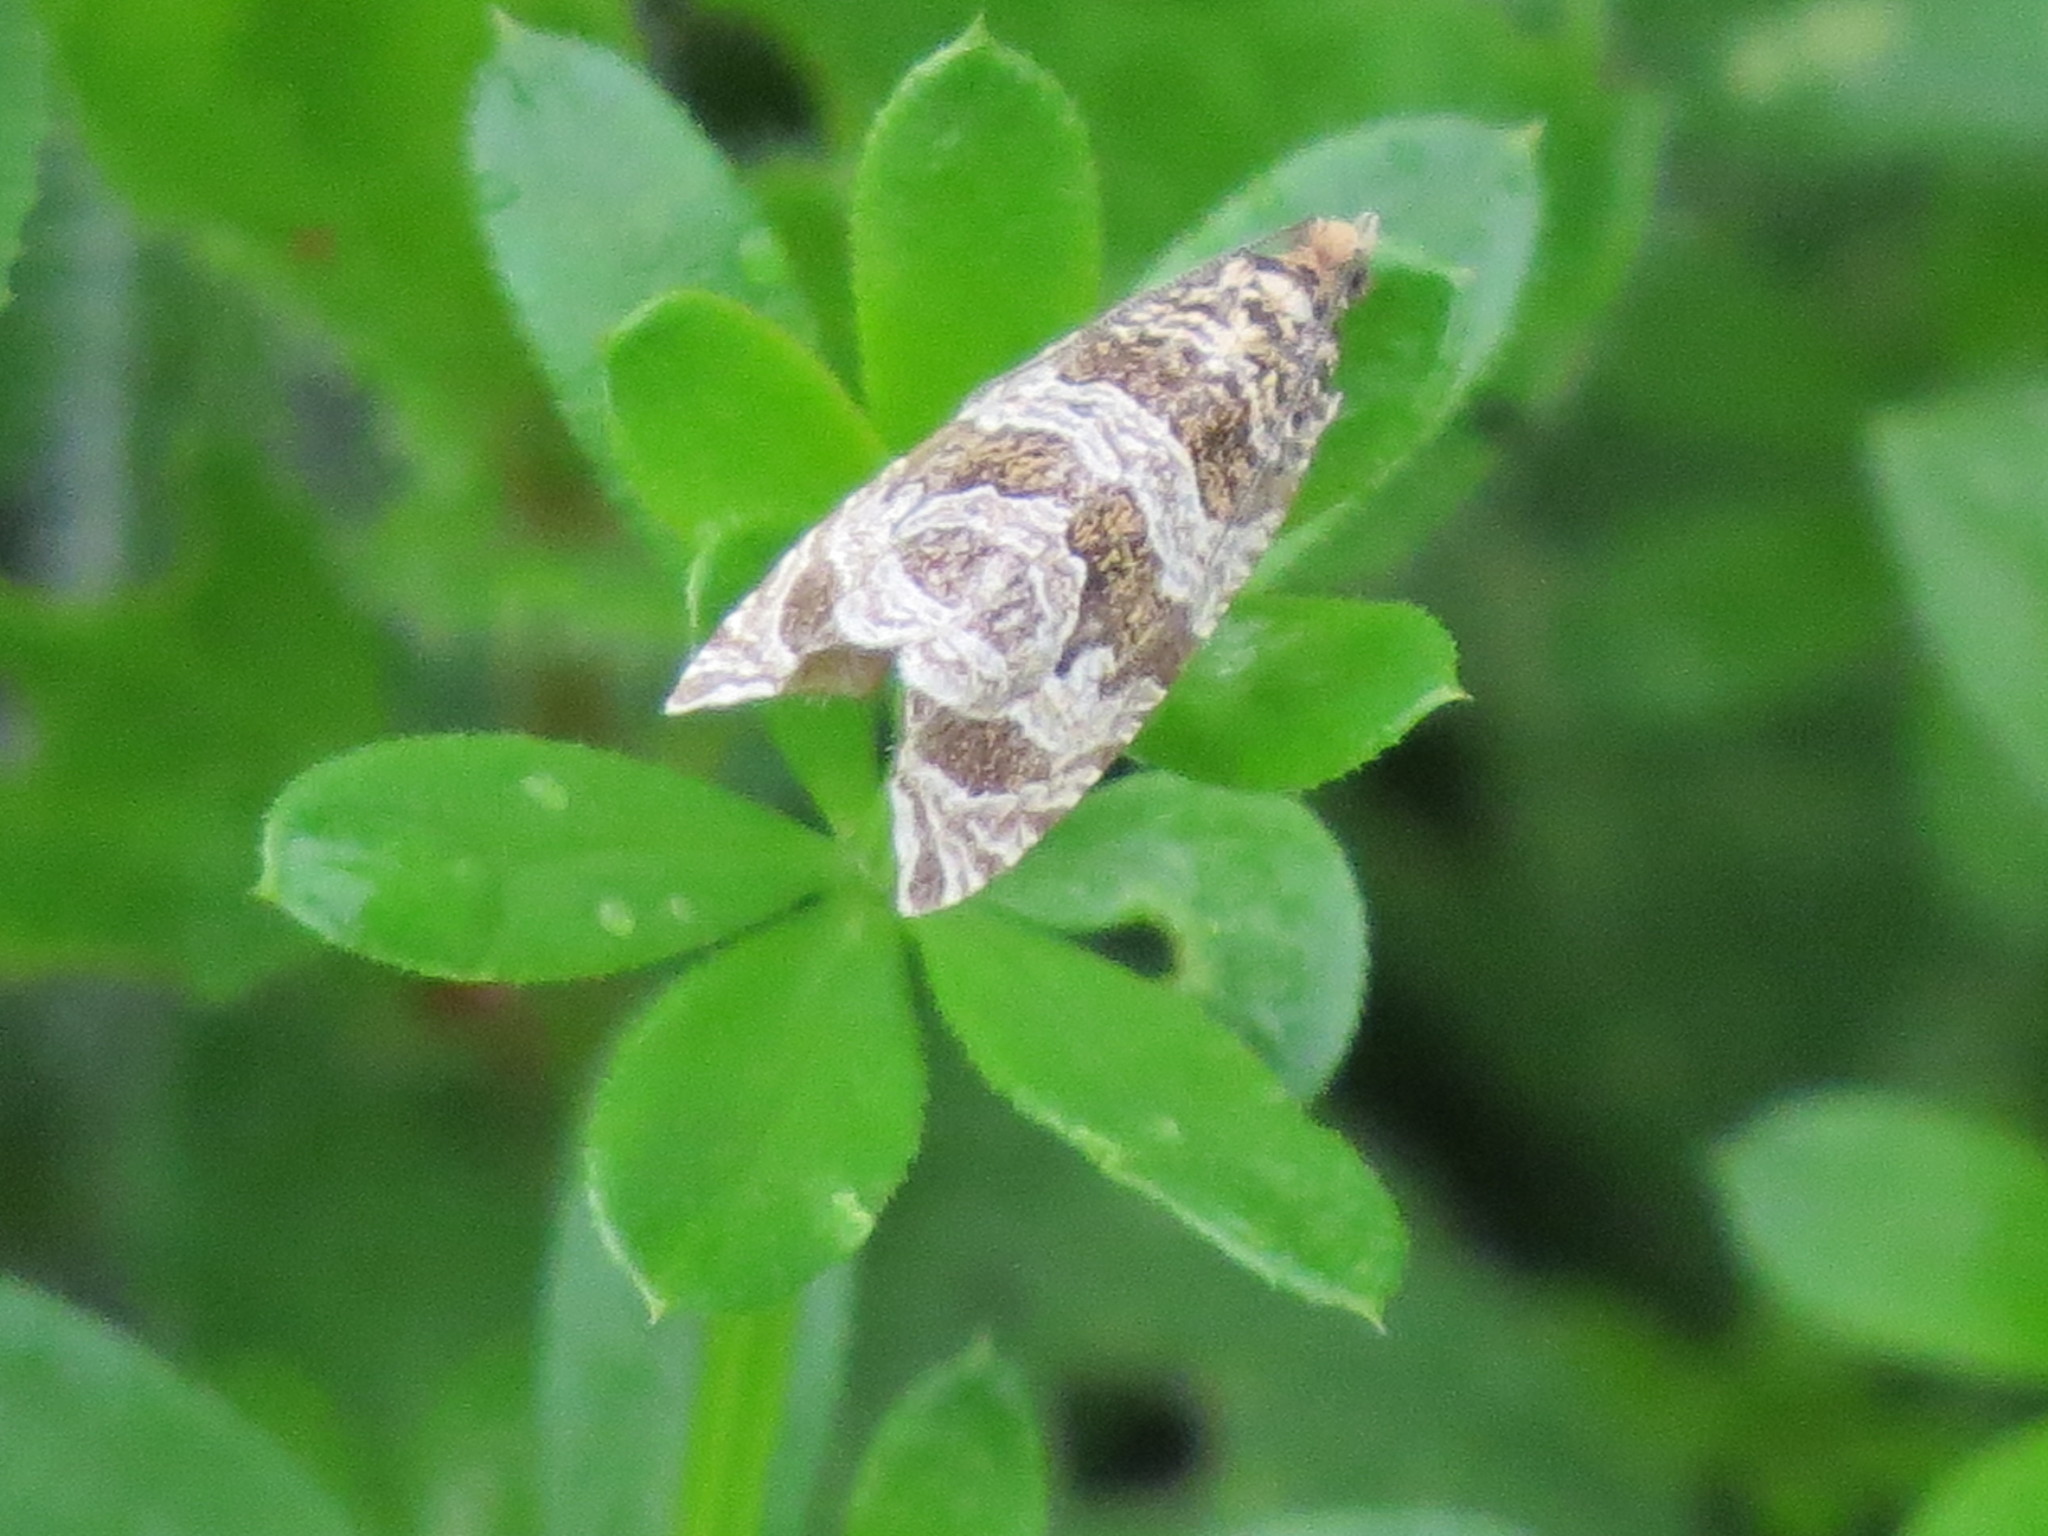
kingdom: Animalia
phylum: Arthropoda
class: Insecta
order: Lepidoptera
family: Tortricidae
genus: Syricoris
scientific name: Syricoris rivulana
